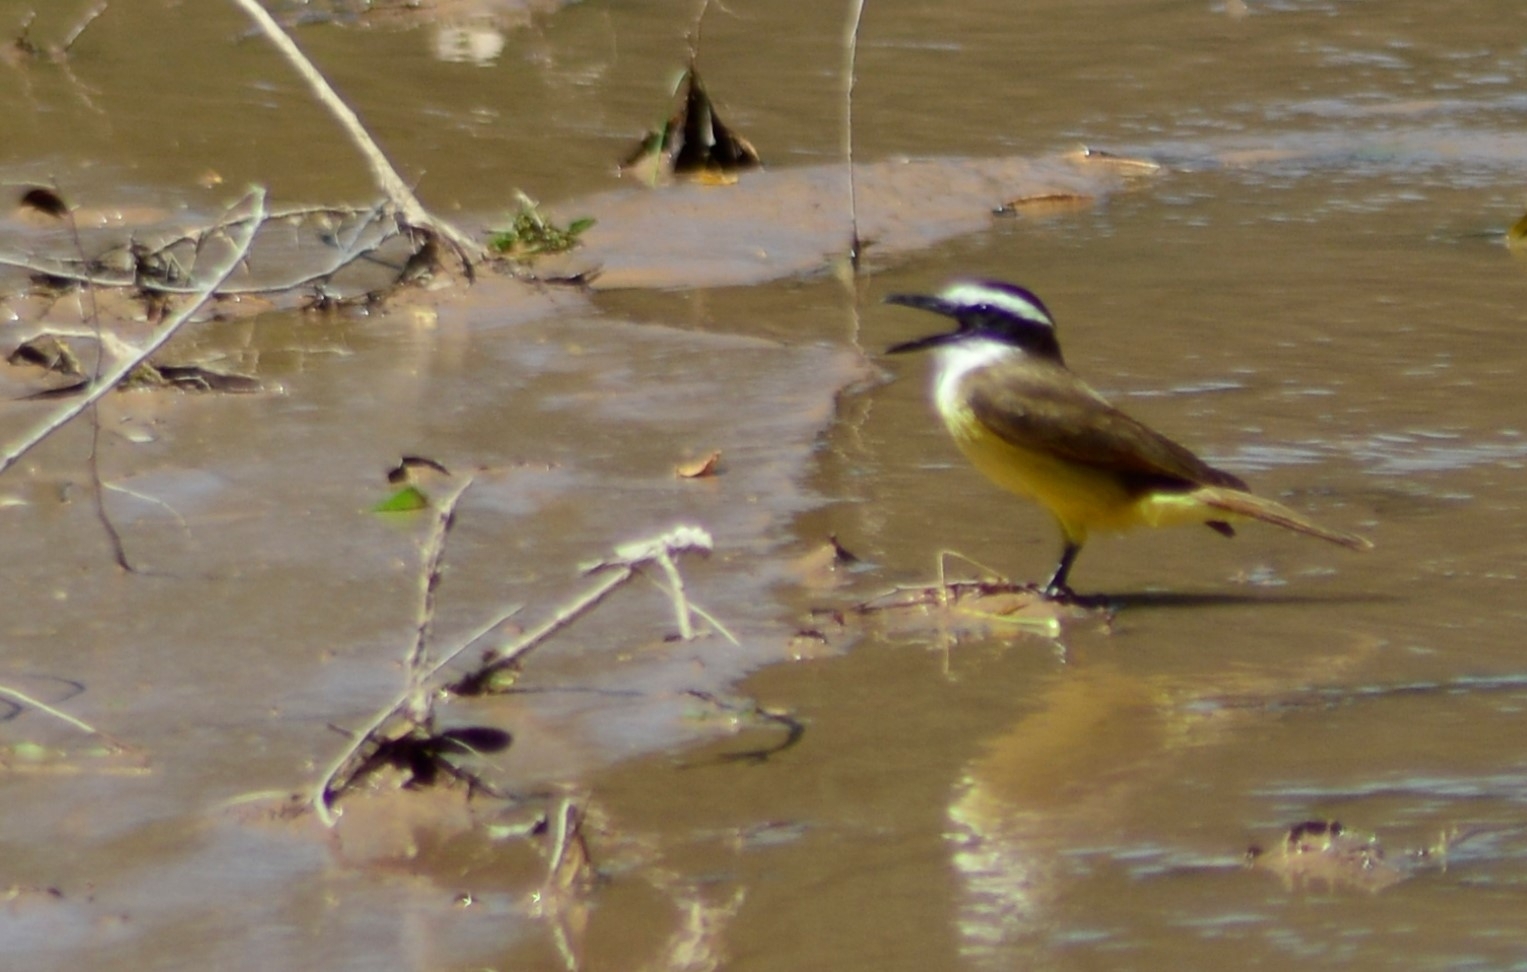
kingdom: Animalia
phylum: Chordata
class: Aves
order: Passeriformes
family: Tyrannidae
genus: Pitangus
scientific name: Pitangus sulphuratus
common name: Great kiskadee
